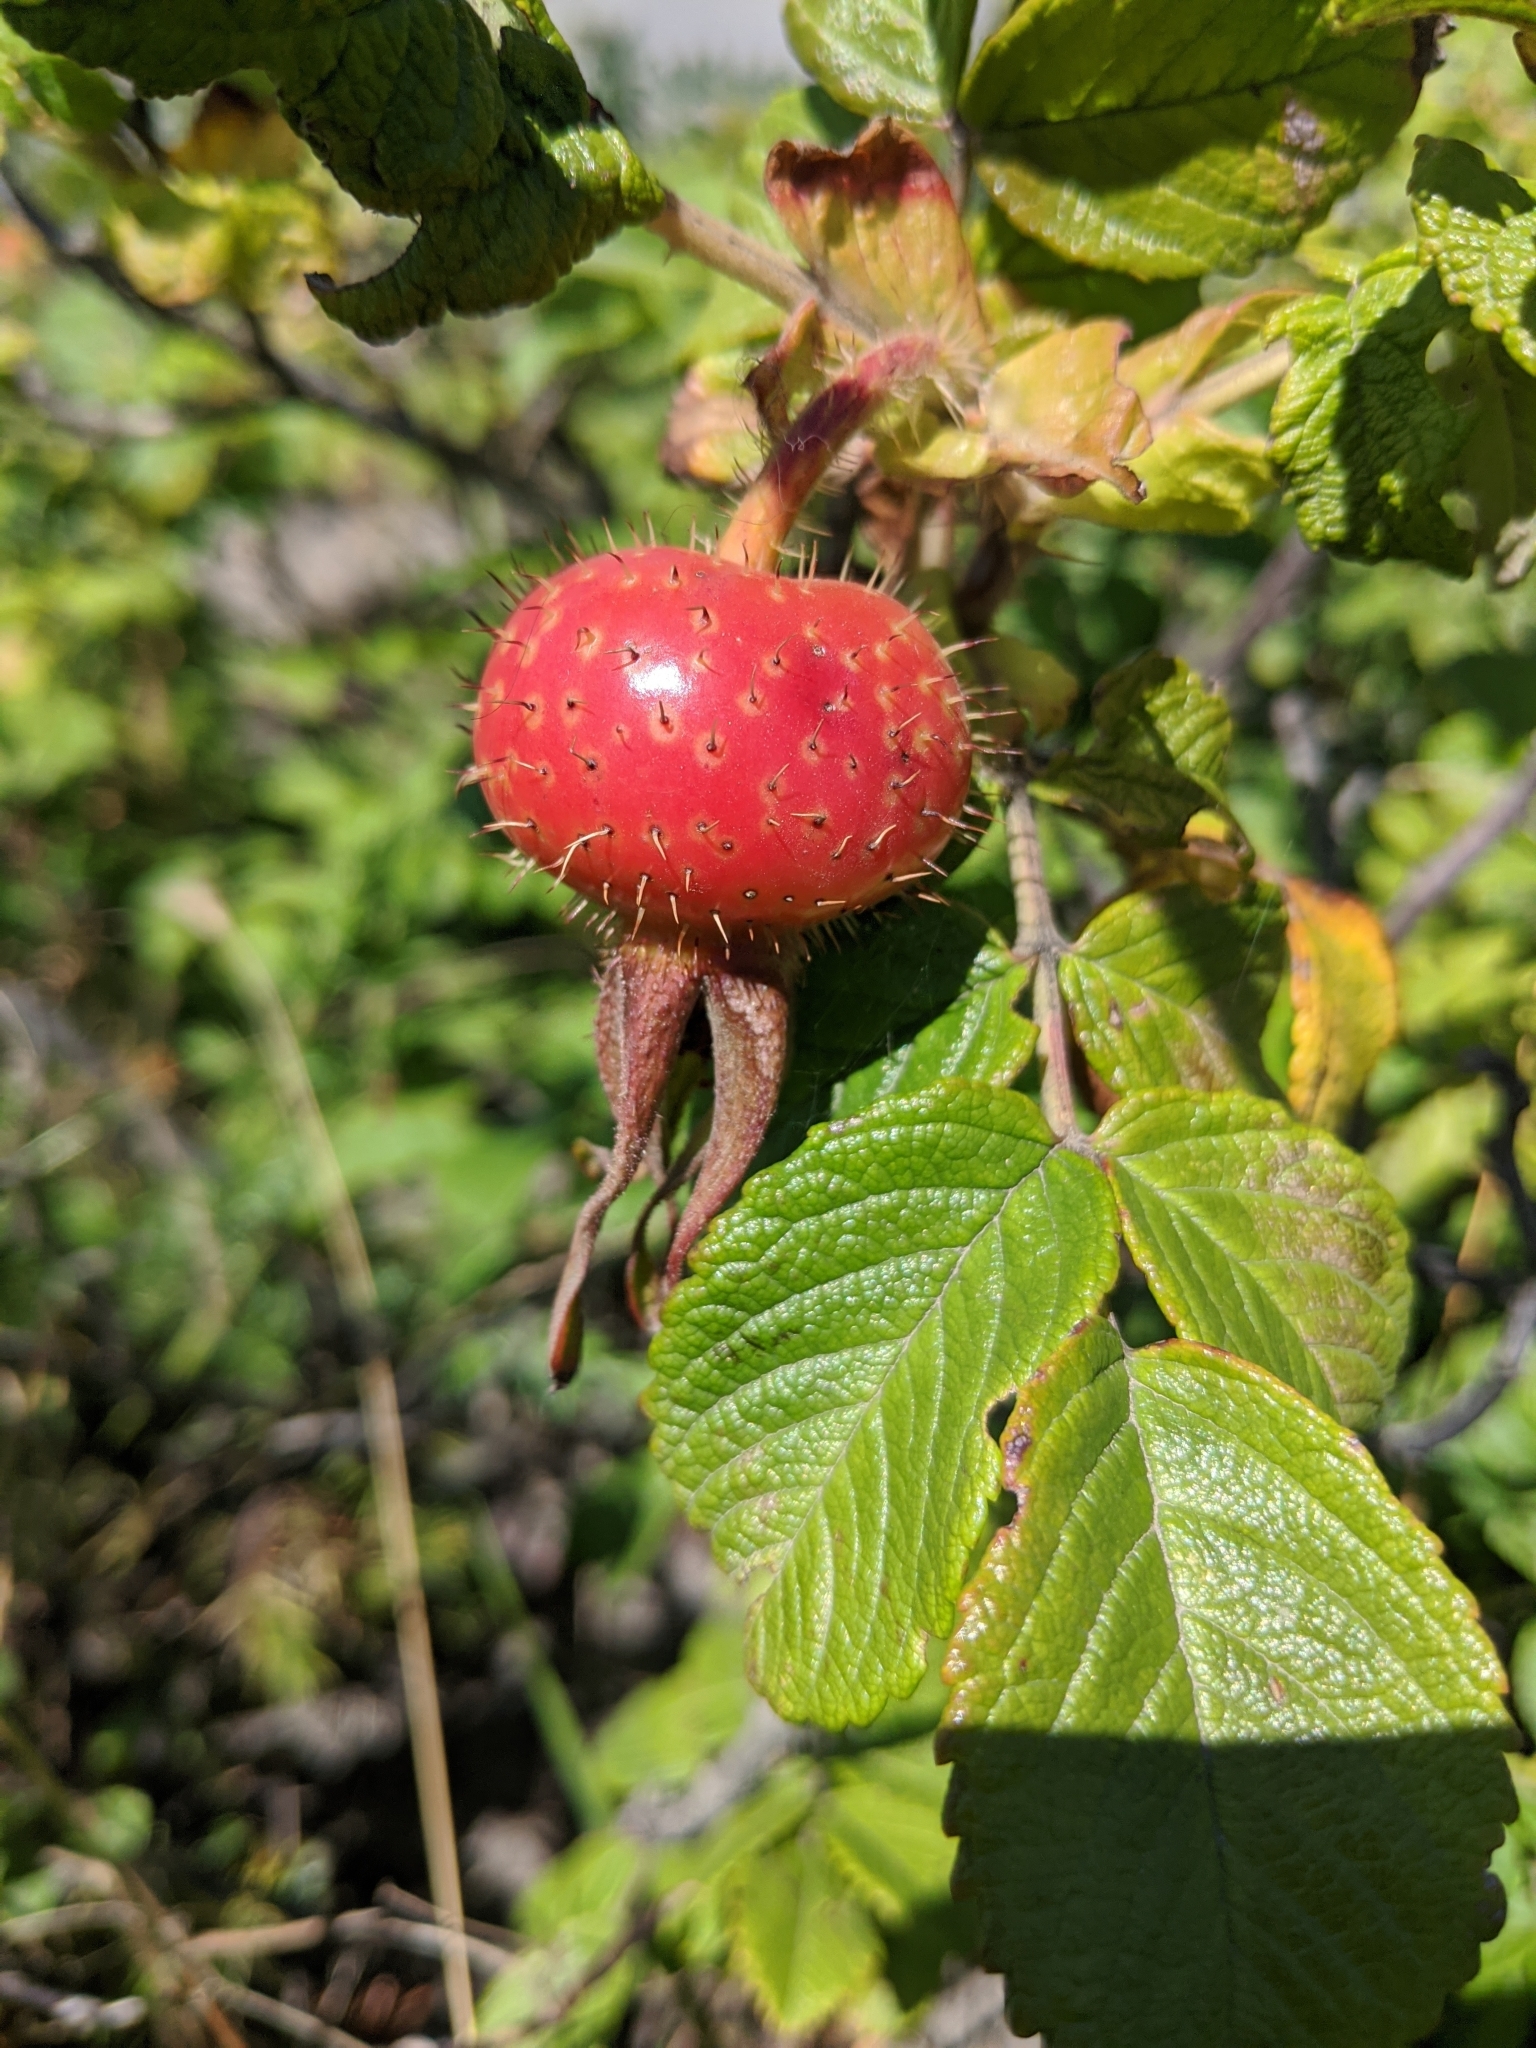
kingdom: Plantae
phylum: Tracheophyta
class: Magnoliopsida
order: Rosales
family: Rosaceae
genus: Rosa
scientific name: Rosa rugosa
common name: Japanese rose
